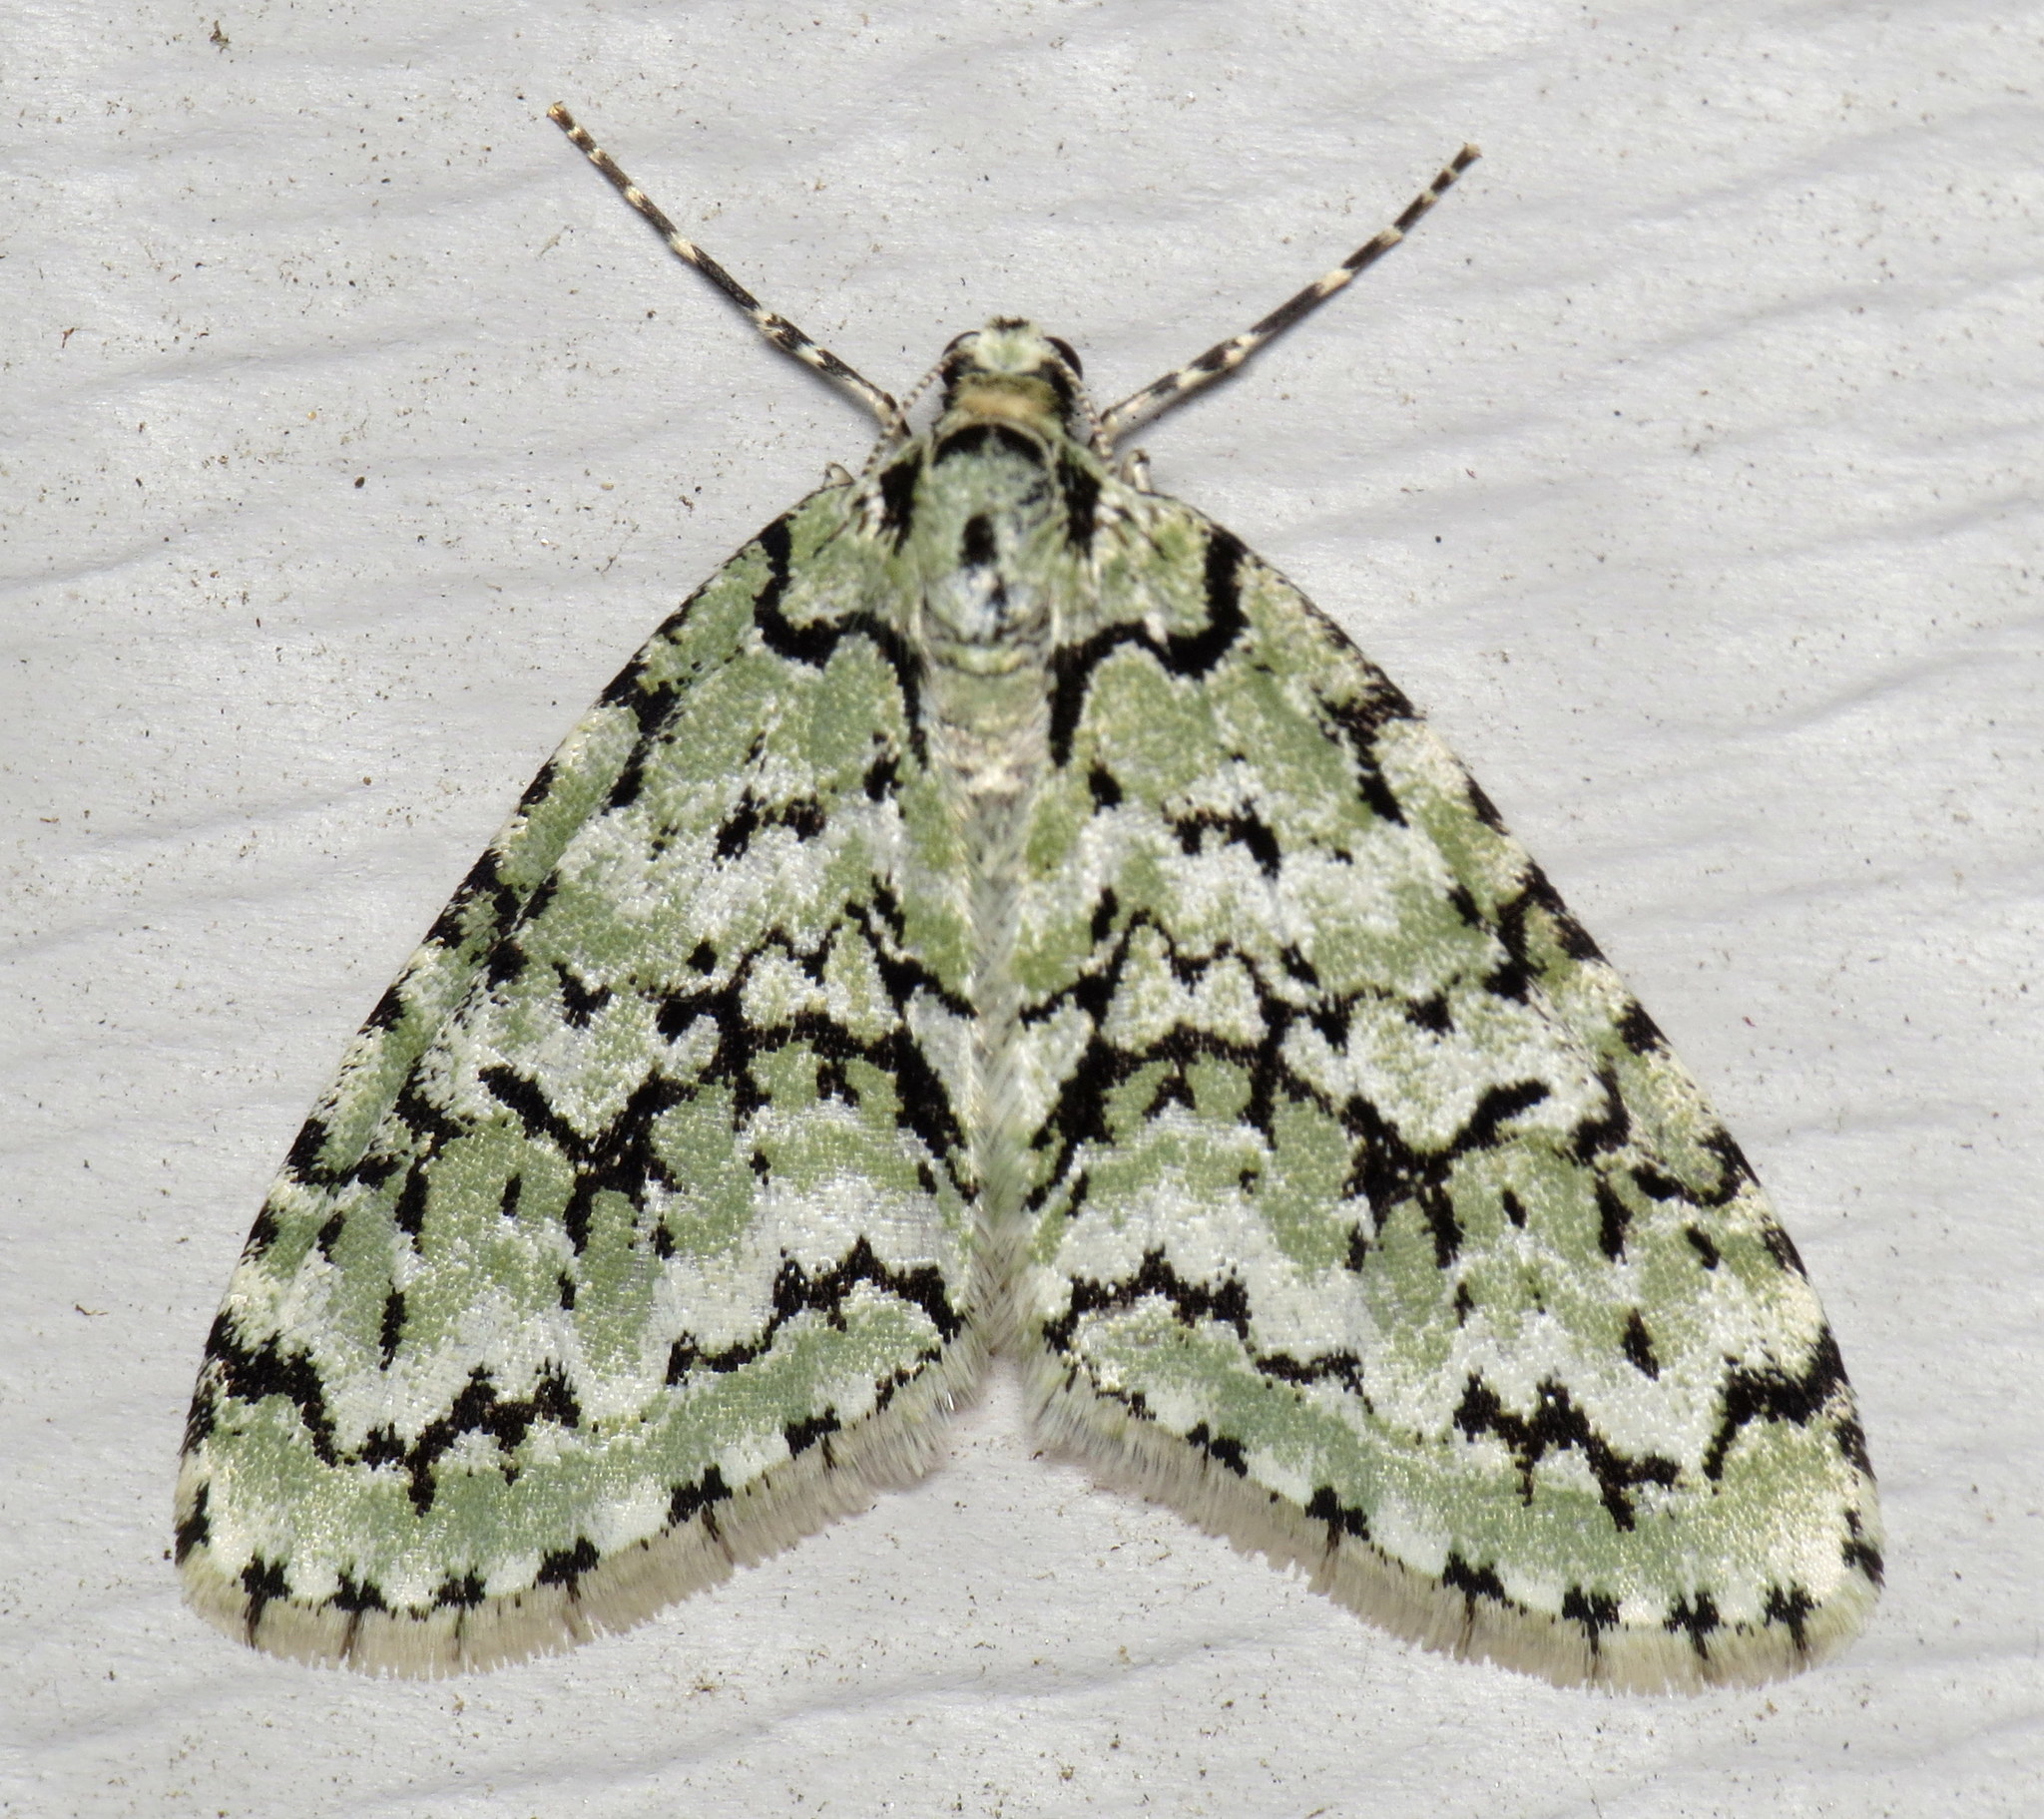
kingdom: Animalia
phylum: Arthropoda
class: Insecta
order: Lepidoptera
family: Geometridae
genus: Cladara
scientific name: Cladara atroliturata
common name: Scribbler
